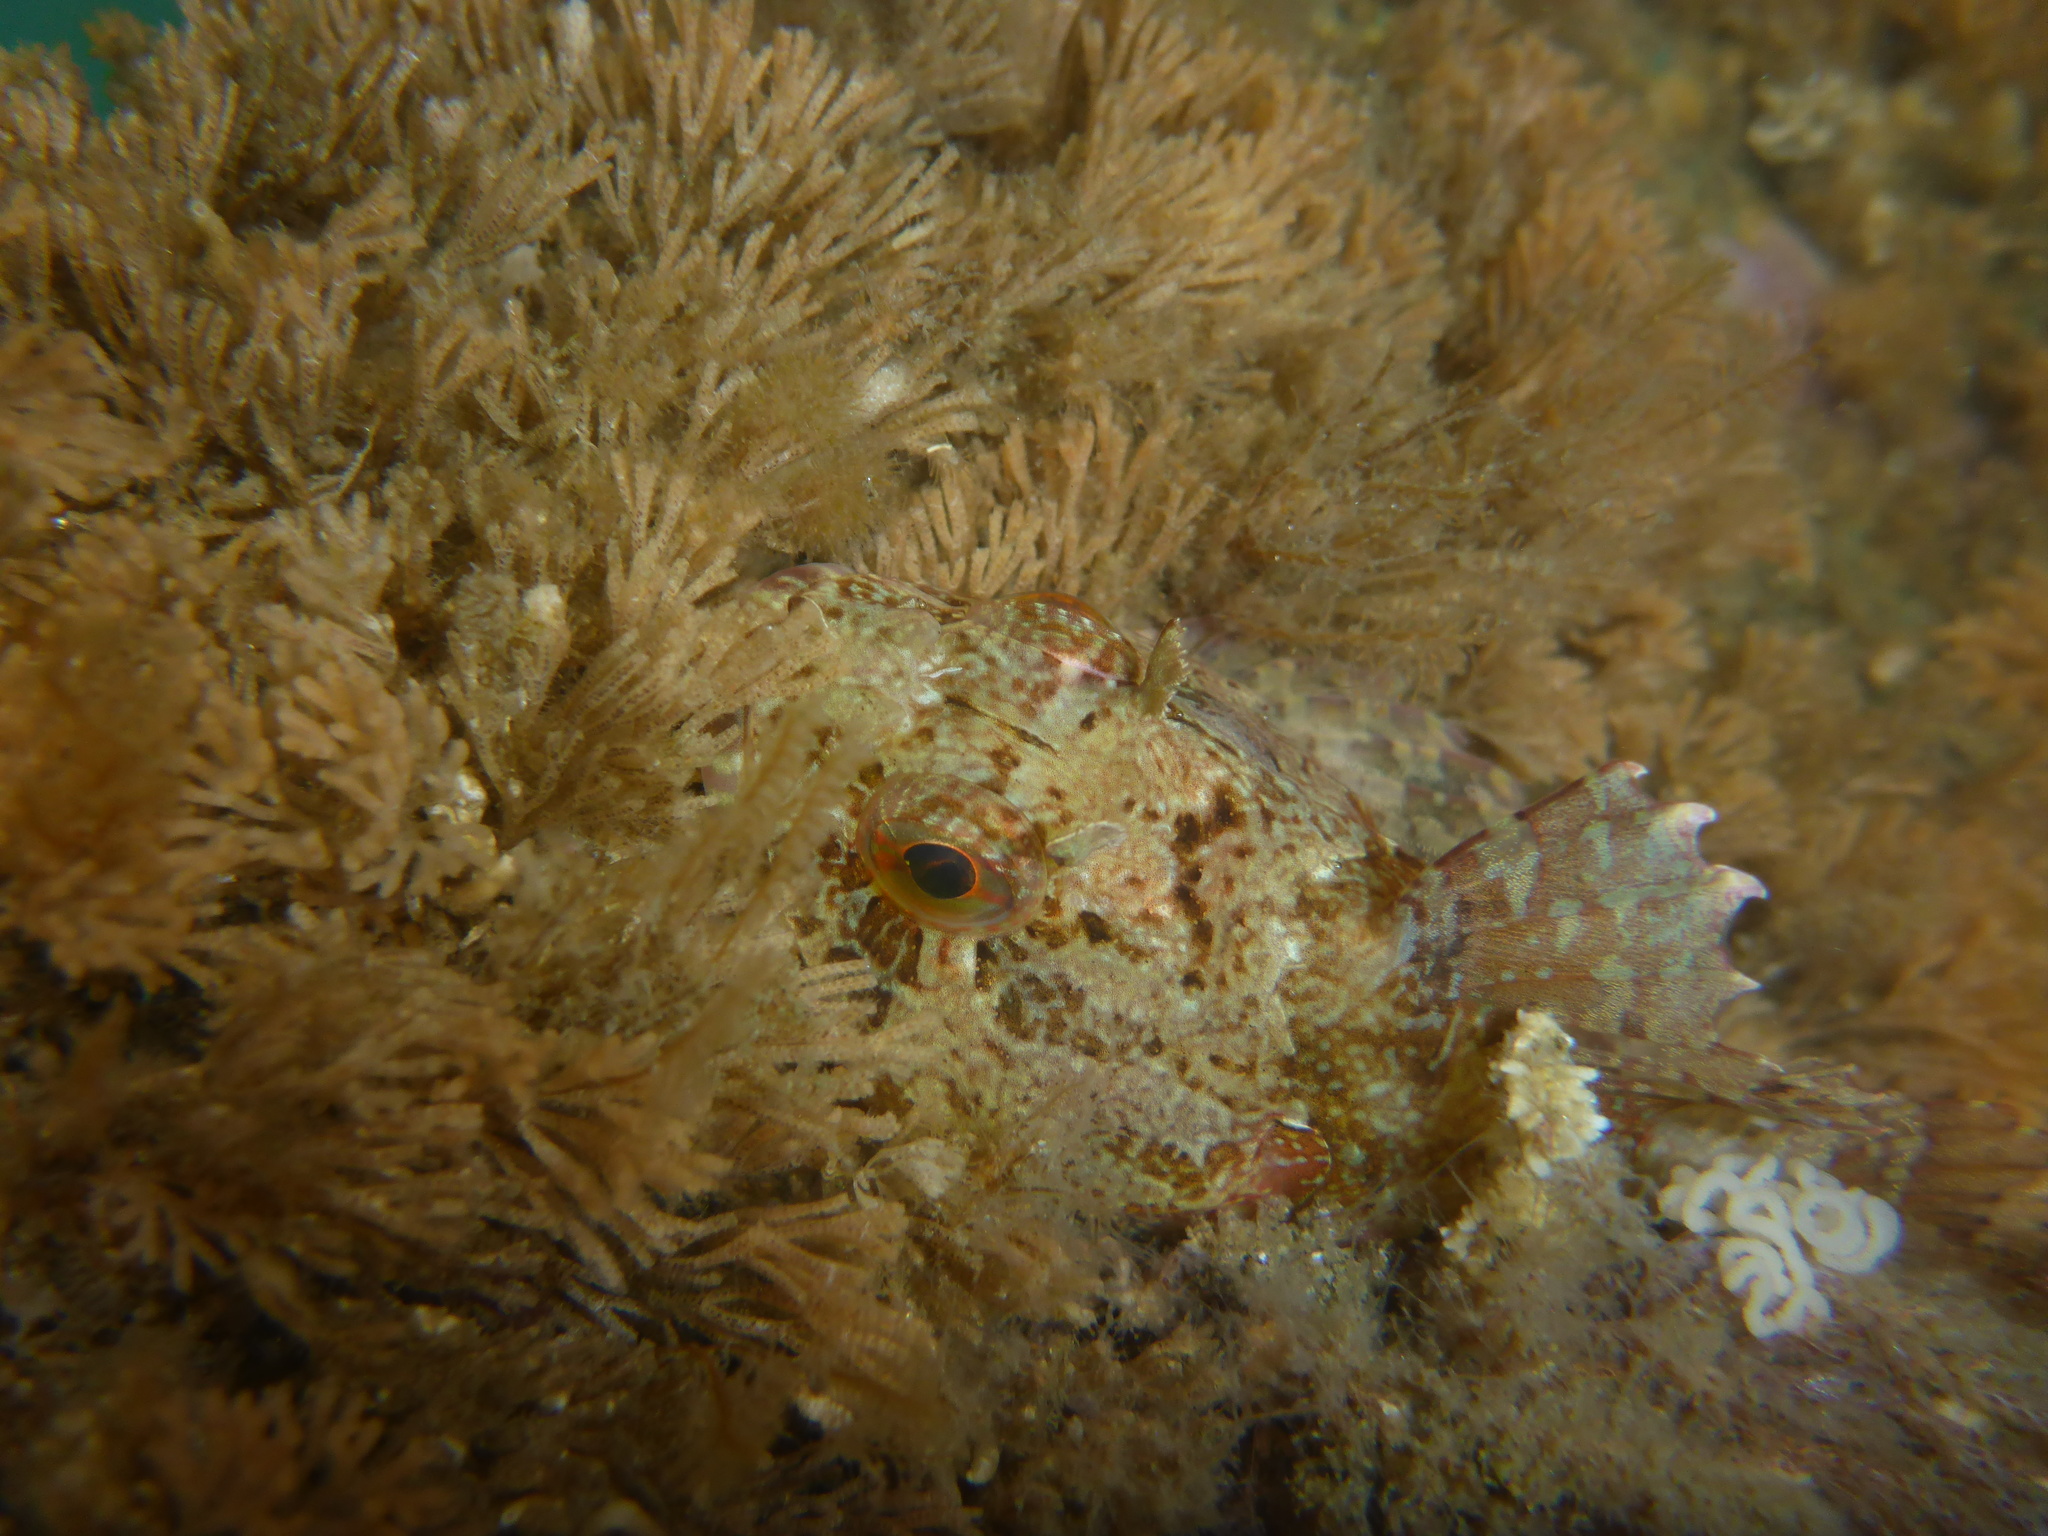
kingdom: Animalia
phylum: Chordata
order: Scorpaeniformes
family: Cottidae
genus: Scorpaenichthys
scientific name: Scorpaenichthys marmoratus
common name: Cabezon
